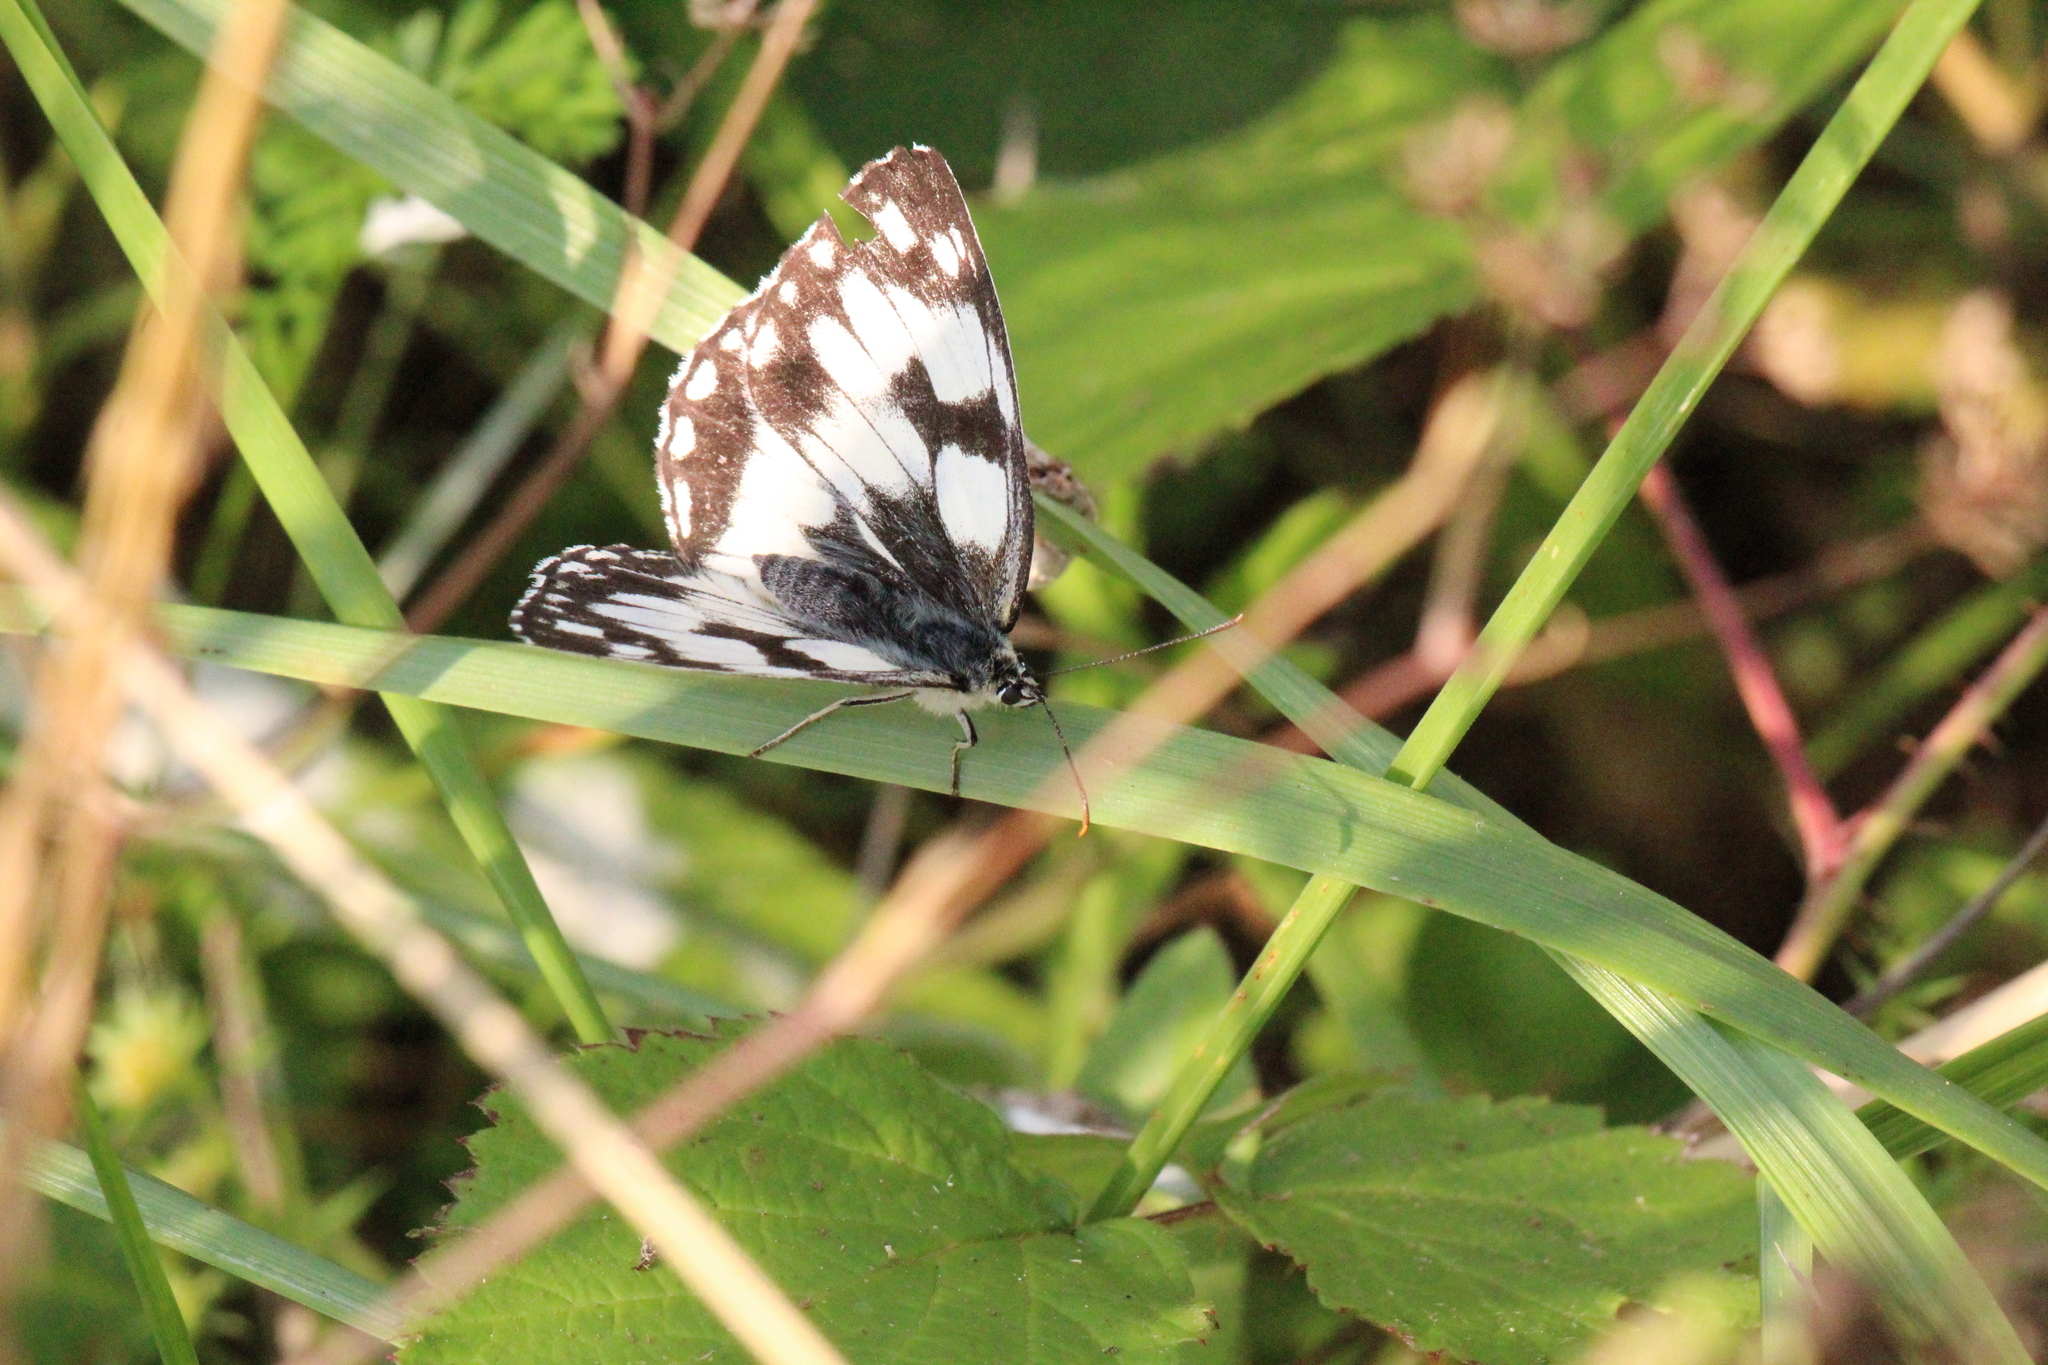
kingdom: Animalia
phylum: Arthropoda
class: Insecta
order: Lepidoptera
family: Nymphalidae
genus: Melanargia
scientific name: Melanargia galathea
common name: Marbled white
